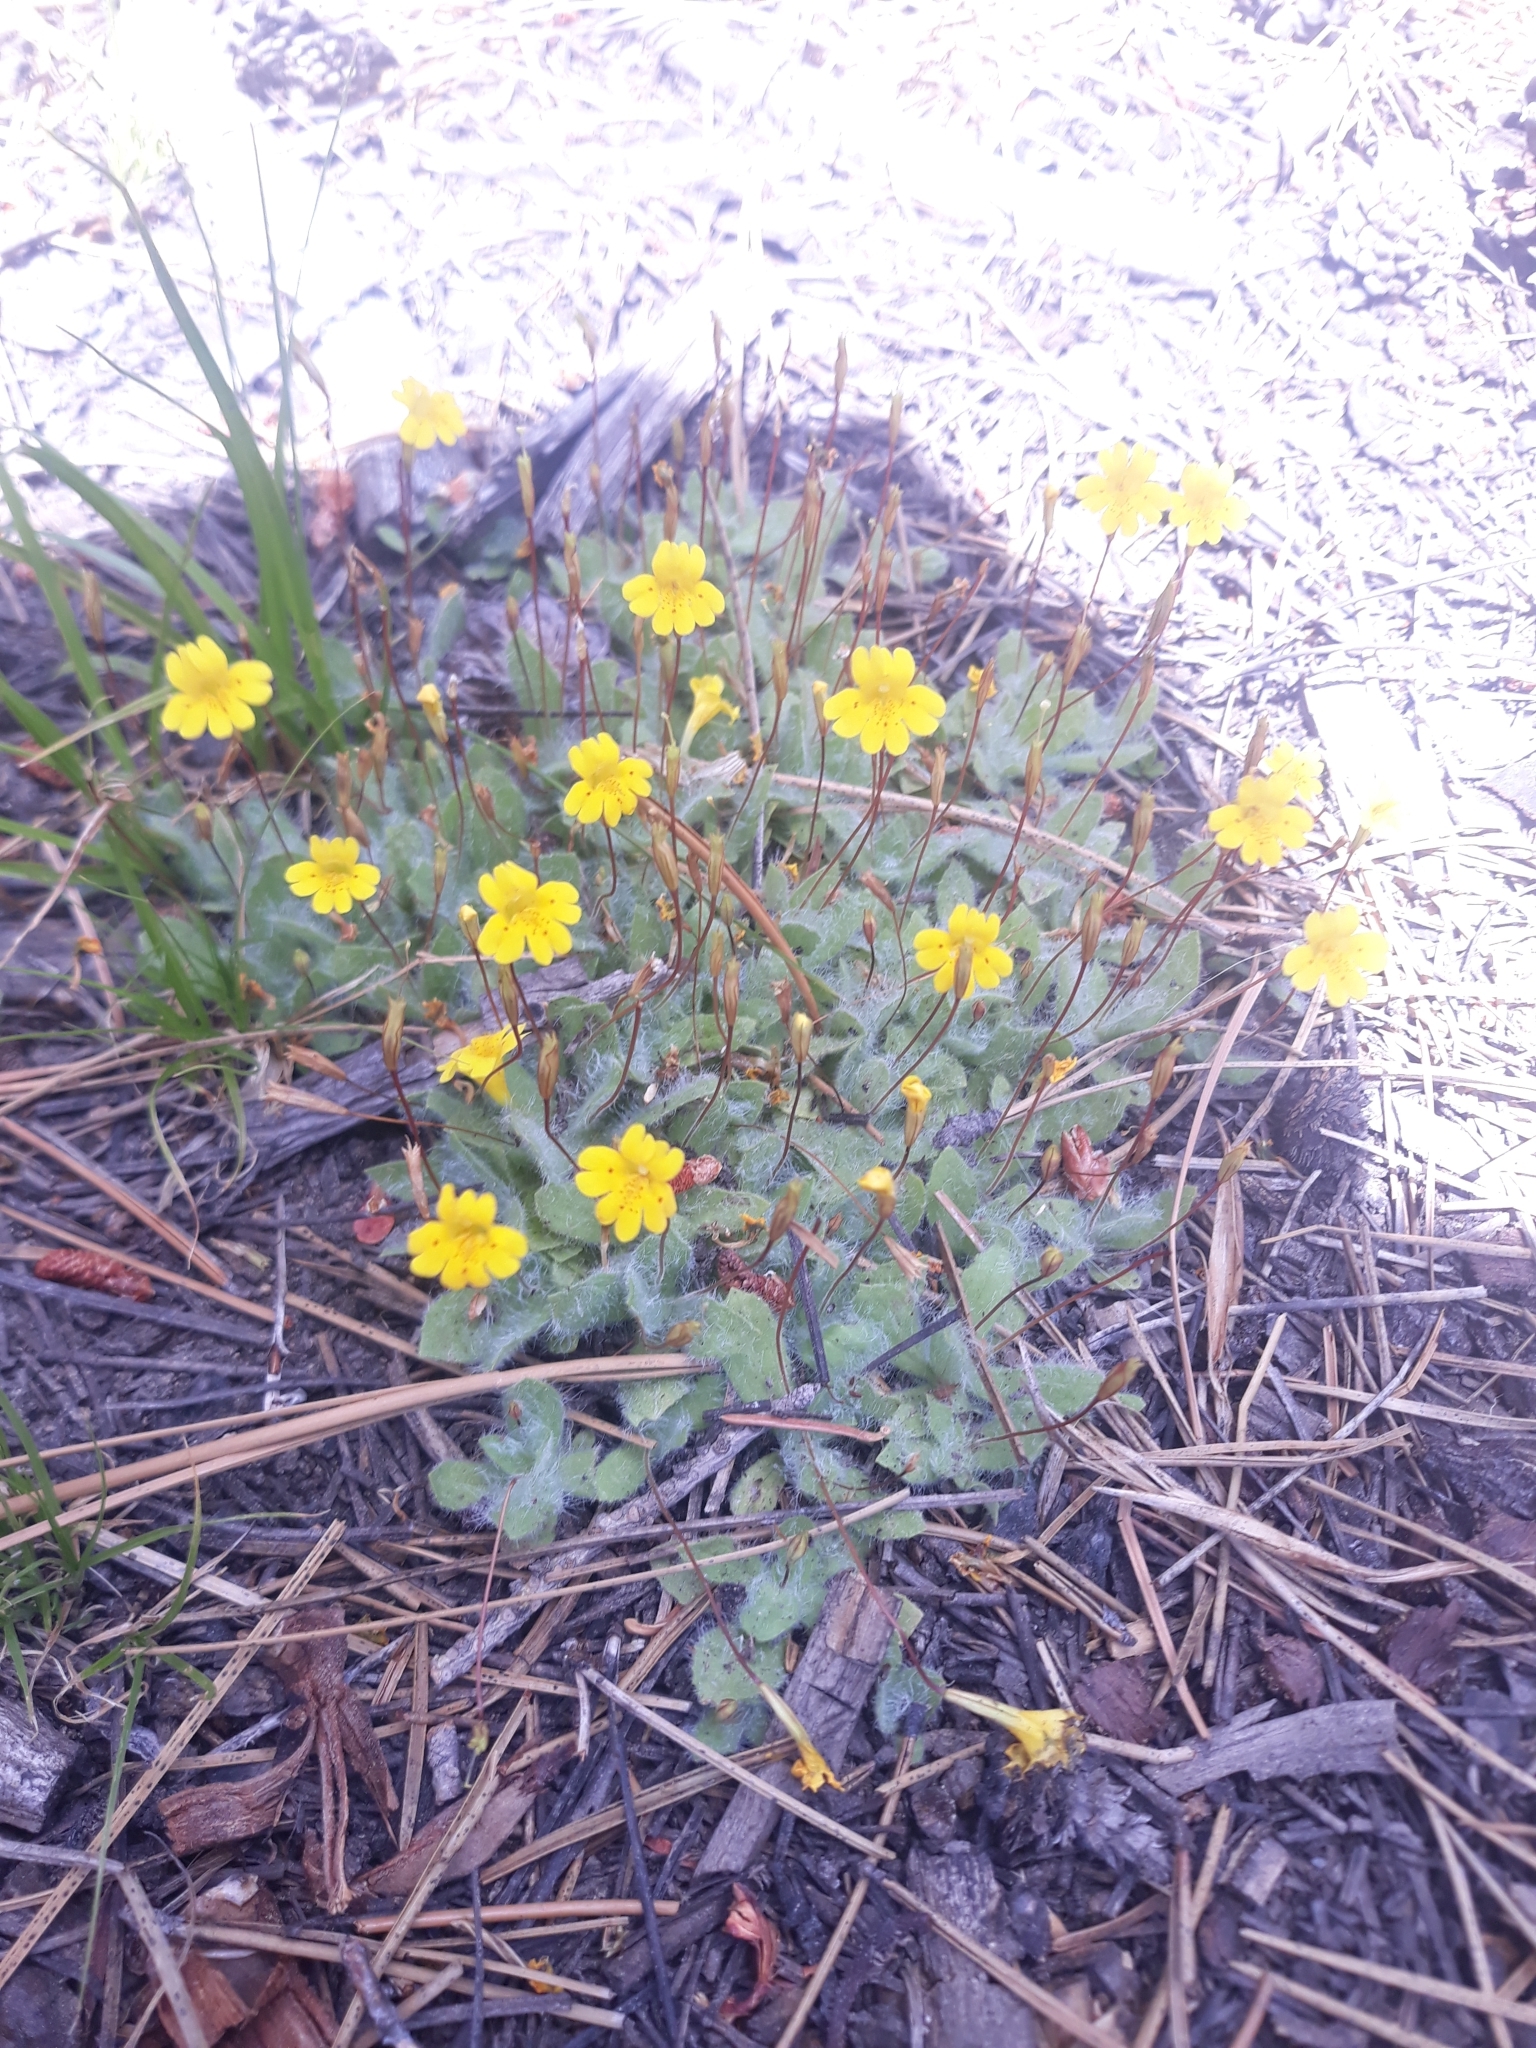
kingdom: Plantae
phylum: Tracheophyta
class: Magnoliopsida
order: Lamiales
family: Phrymaceae
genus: Erythranthe
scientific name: Erythranthe primuloides
